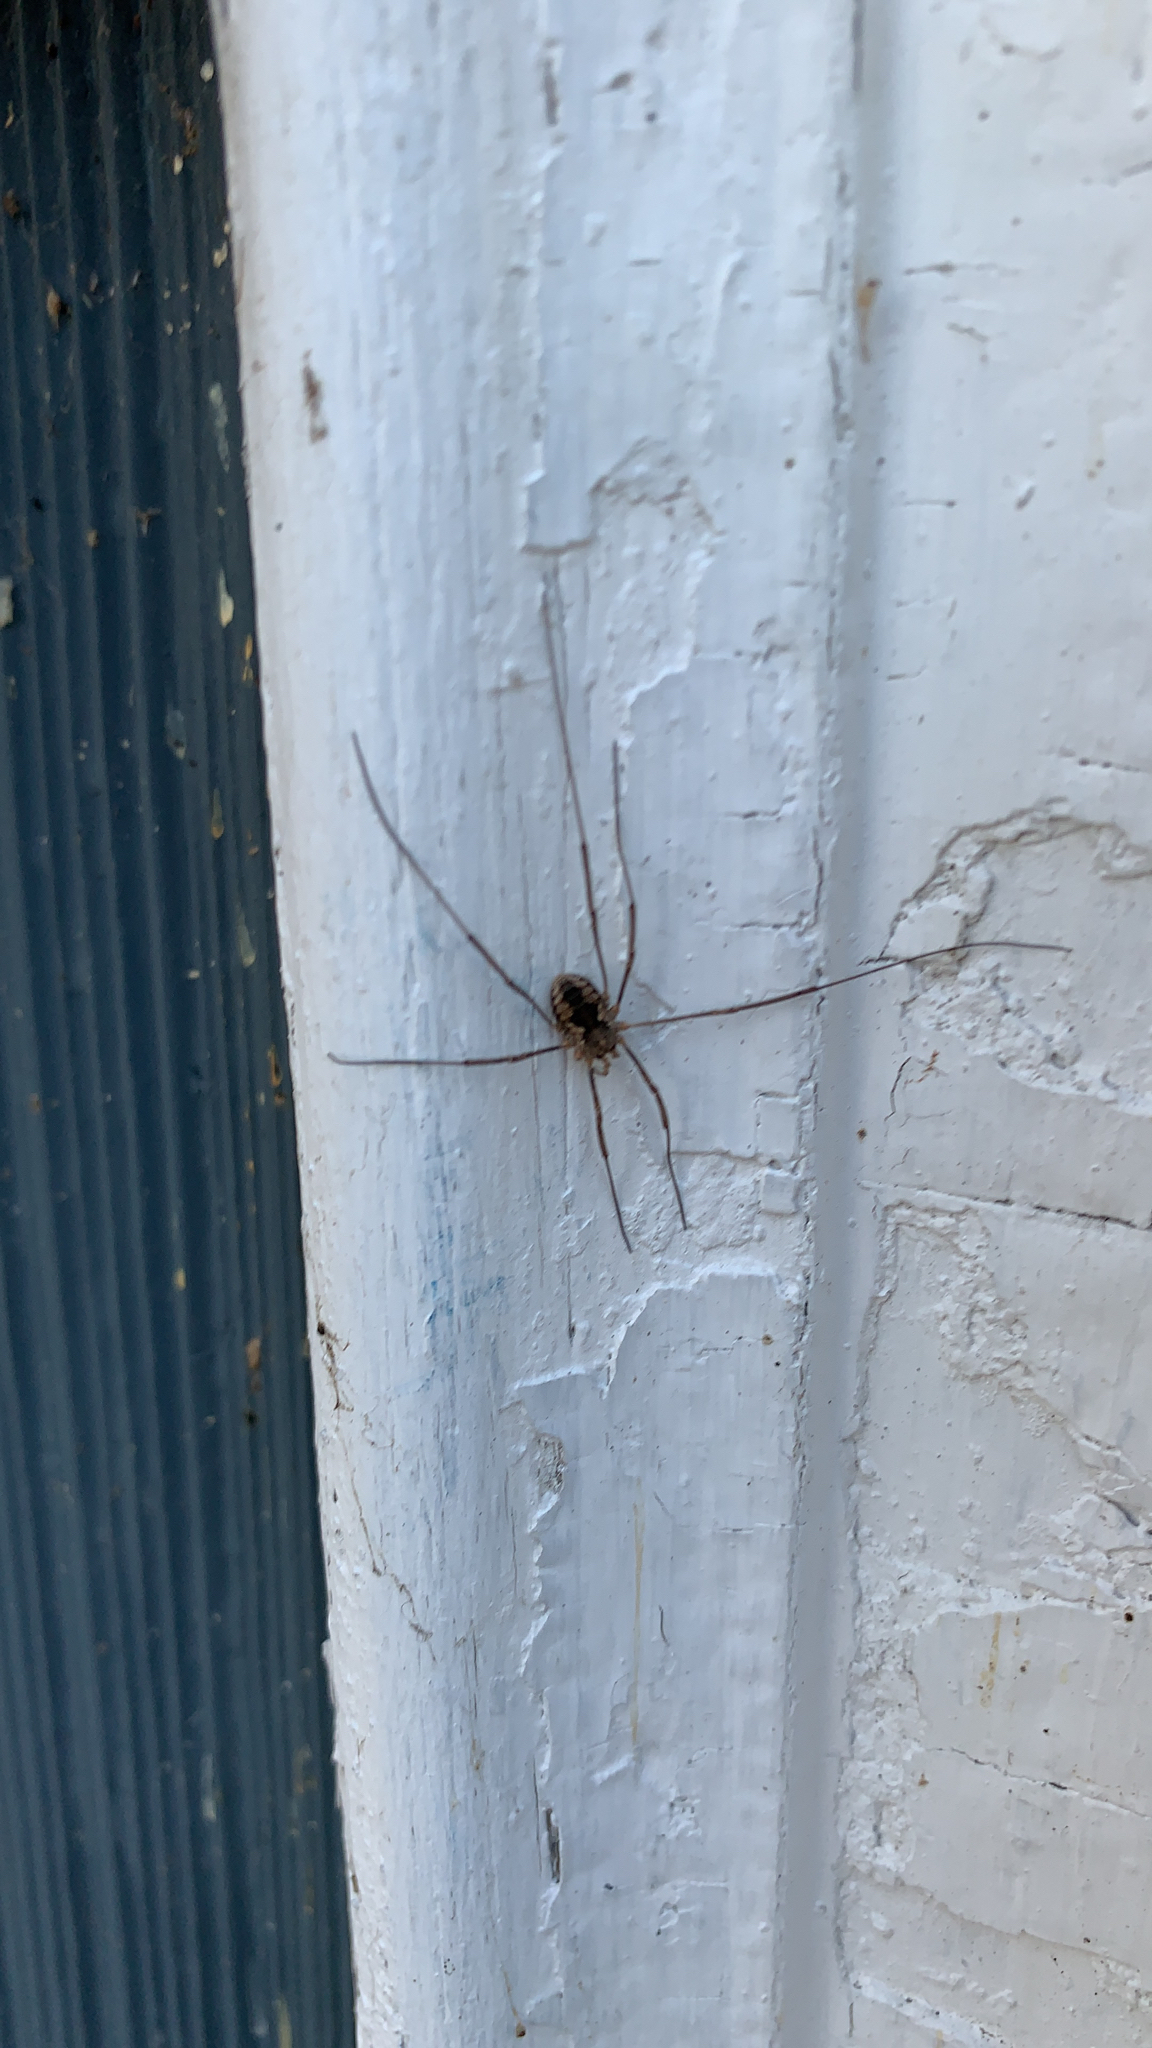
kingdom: Animalia
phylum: Arthropoda
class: Arachnida
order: Opiliones
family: Phalangiidae
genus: Phalangium
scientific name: Phalangium opilio
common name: Daddy longleg
